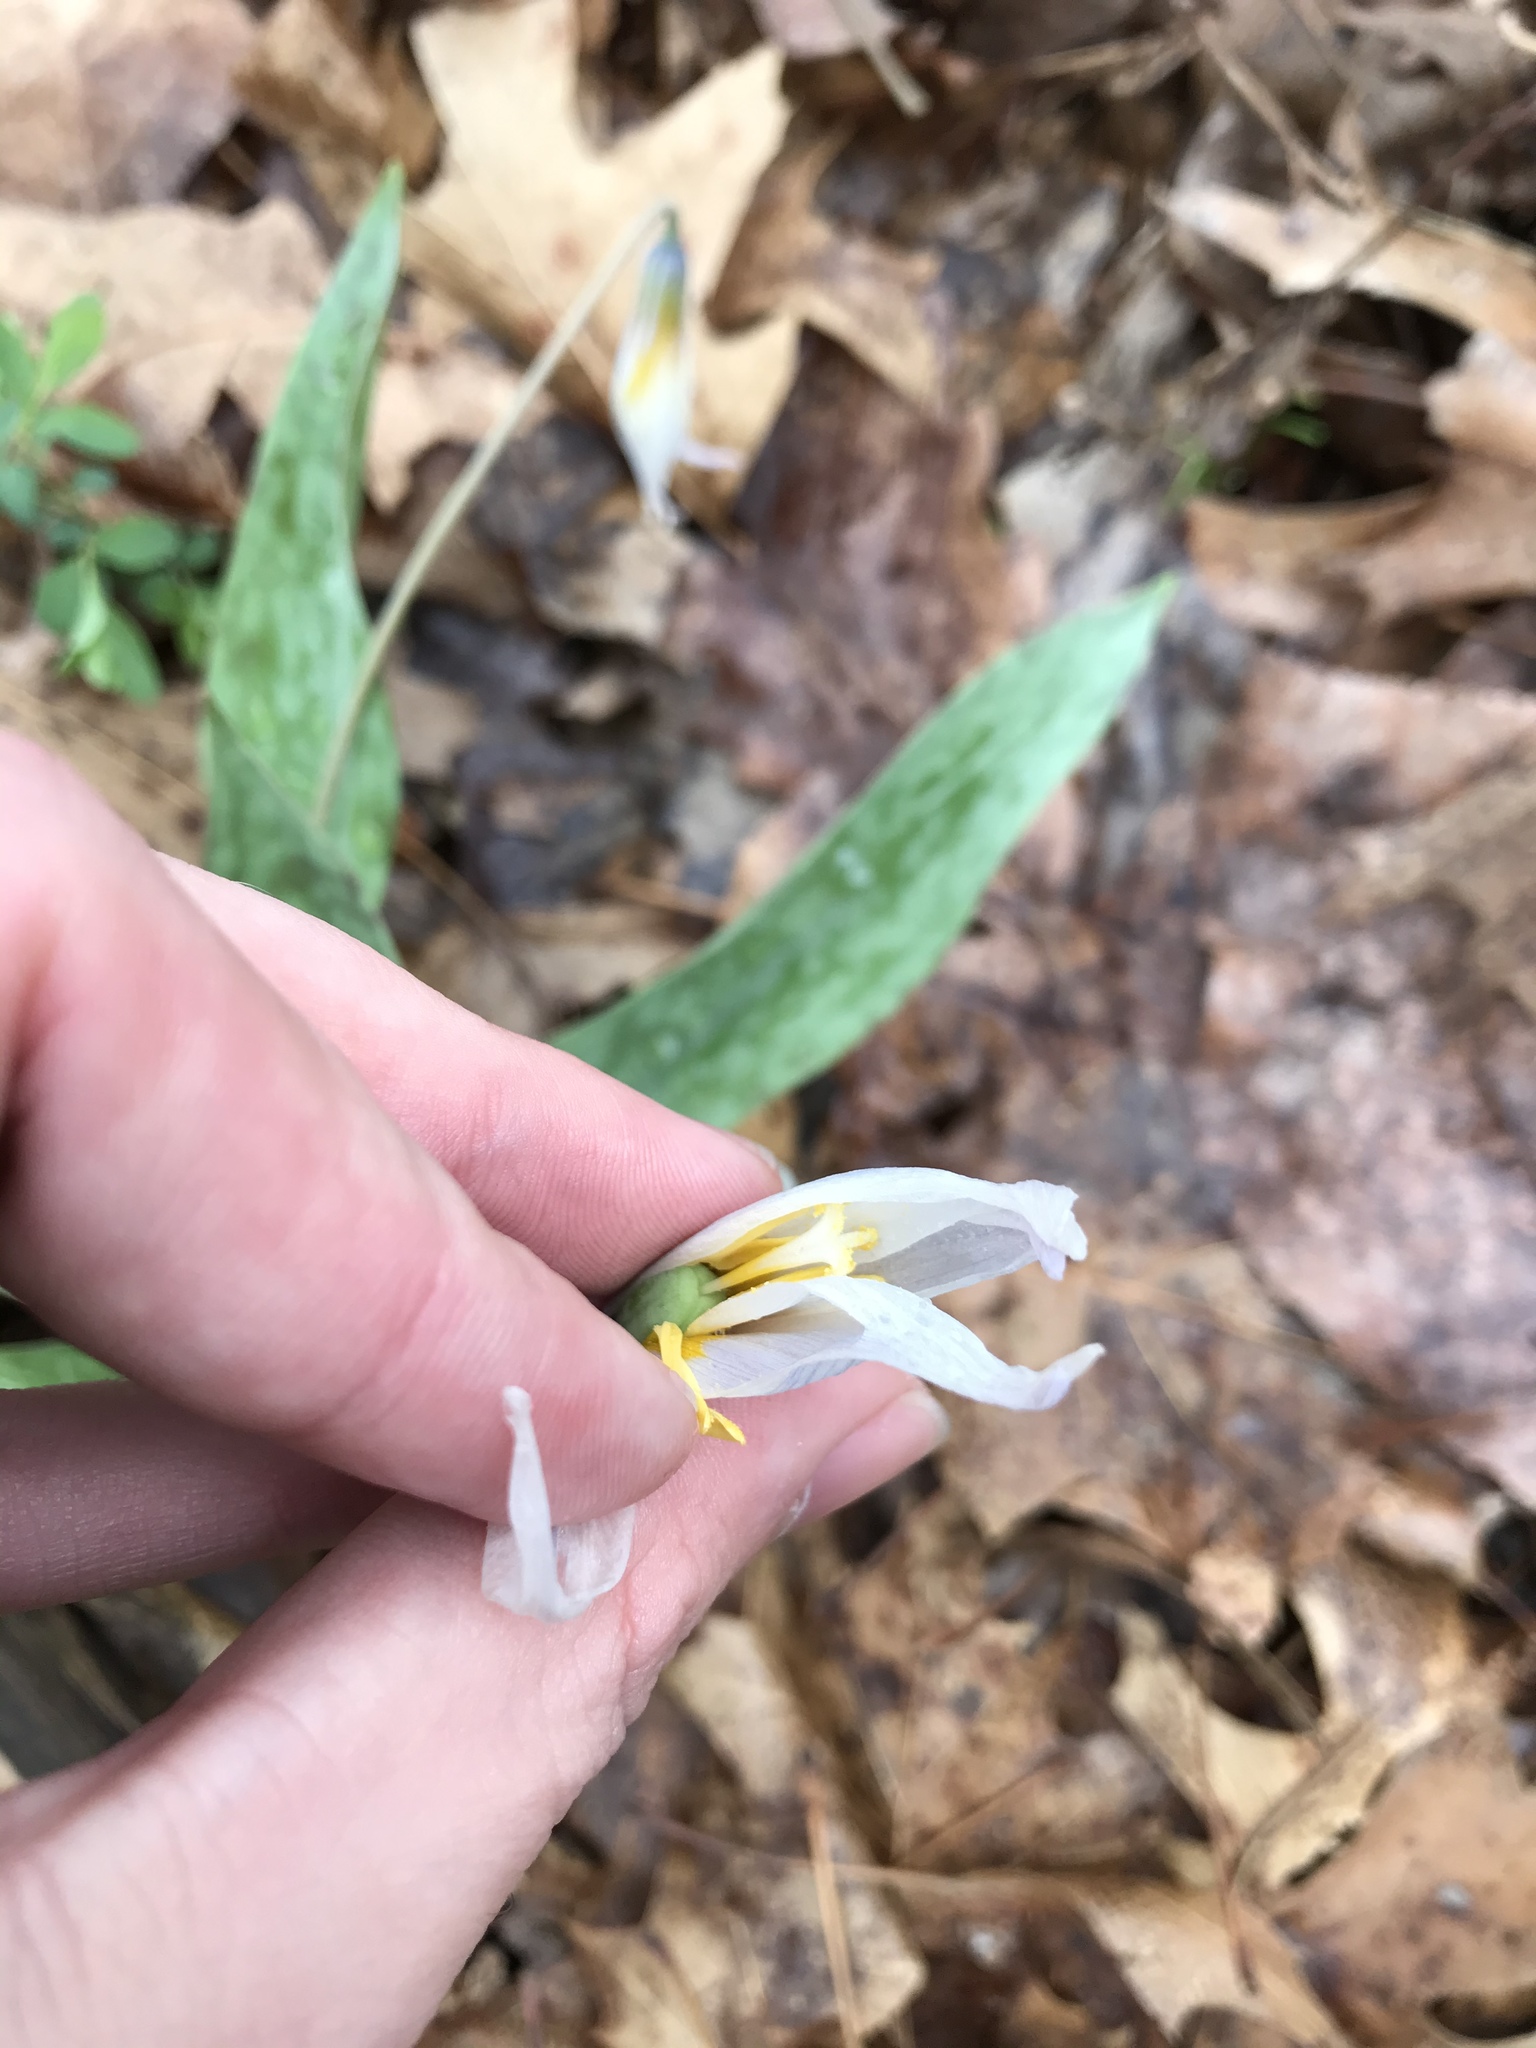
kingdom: Plantae
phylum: Tracheophyta
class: Liliopsida
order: Liliales
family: Liliaceae
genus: Erythronium
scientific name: Erythronium albidum
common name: White trout-lily
